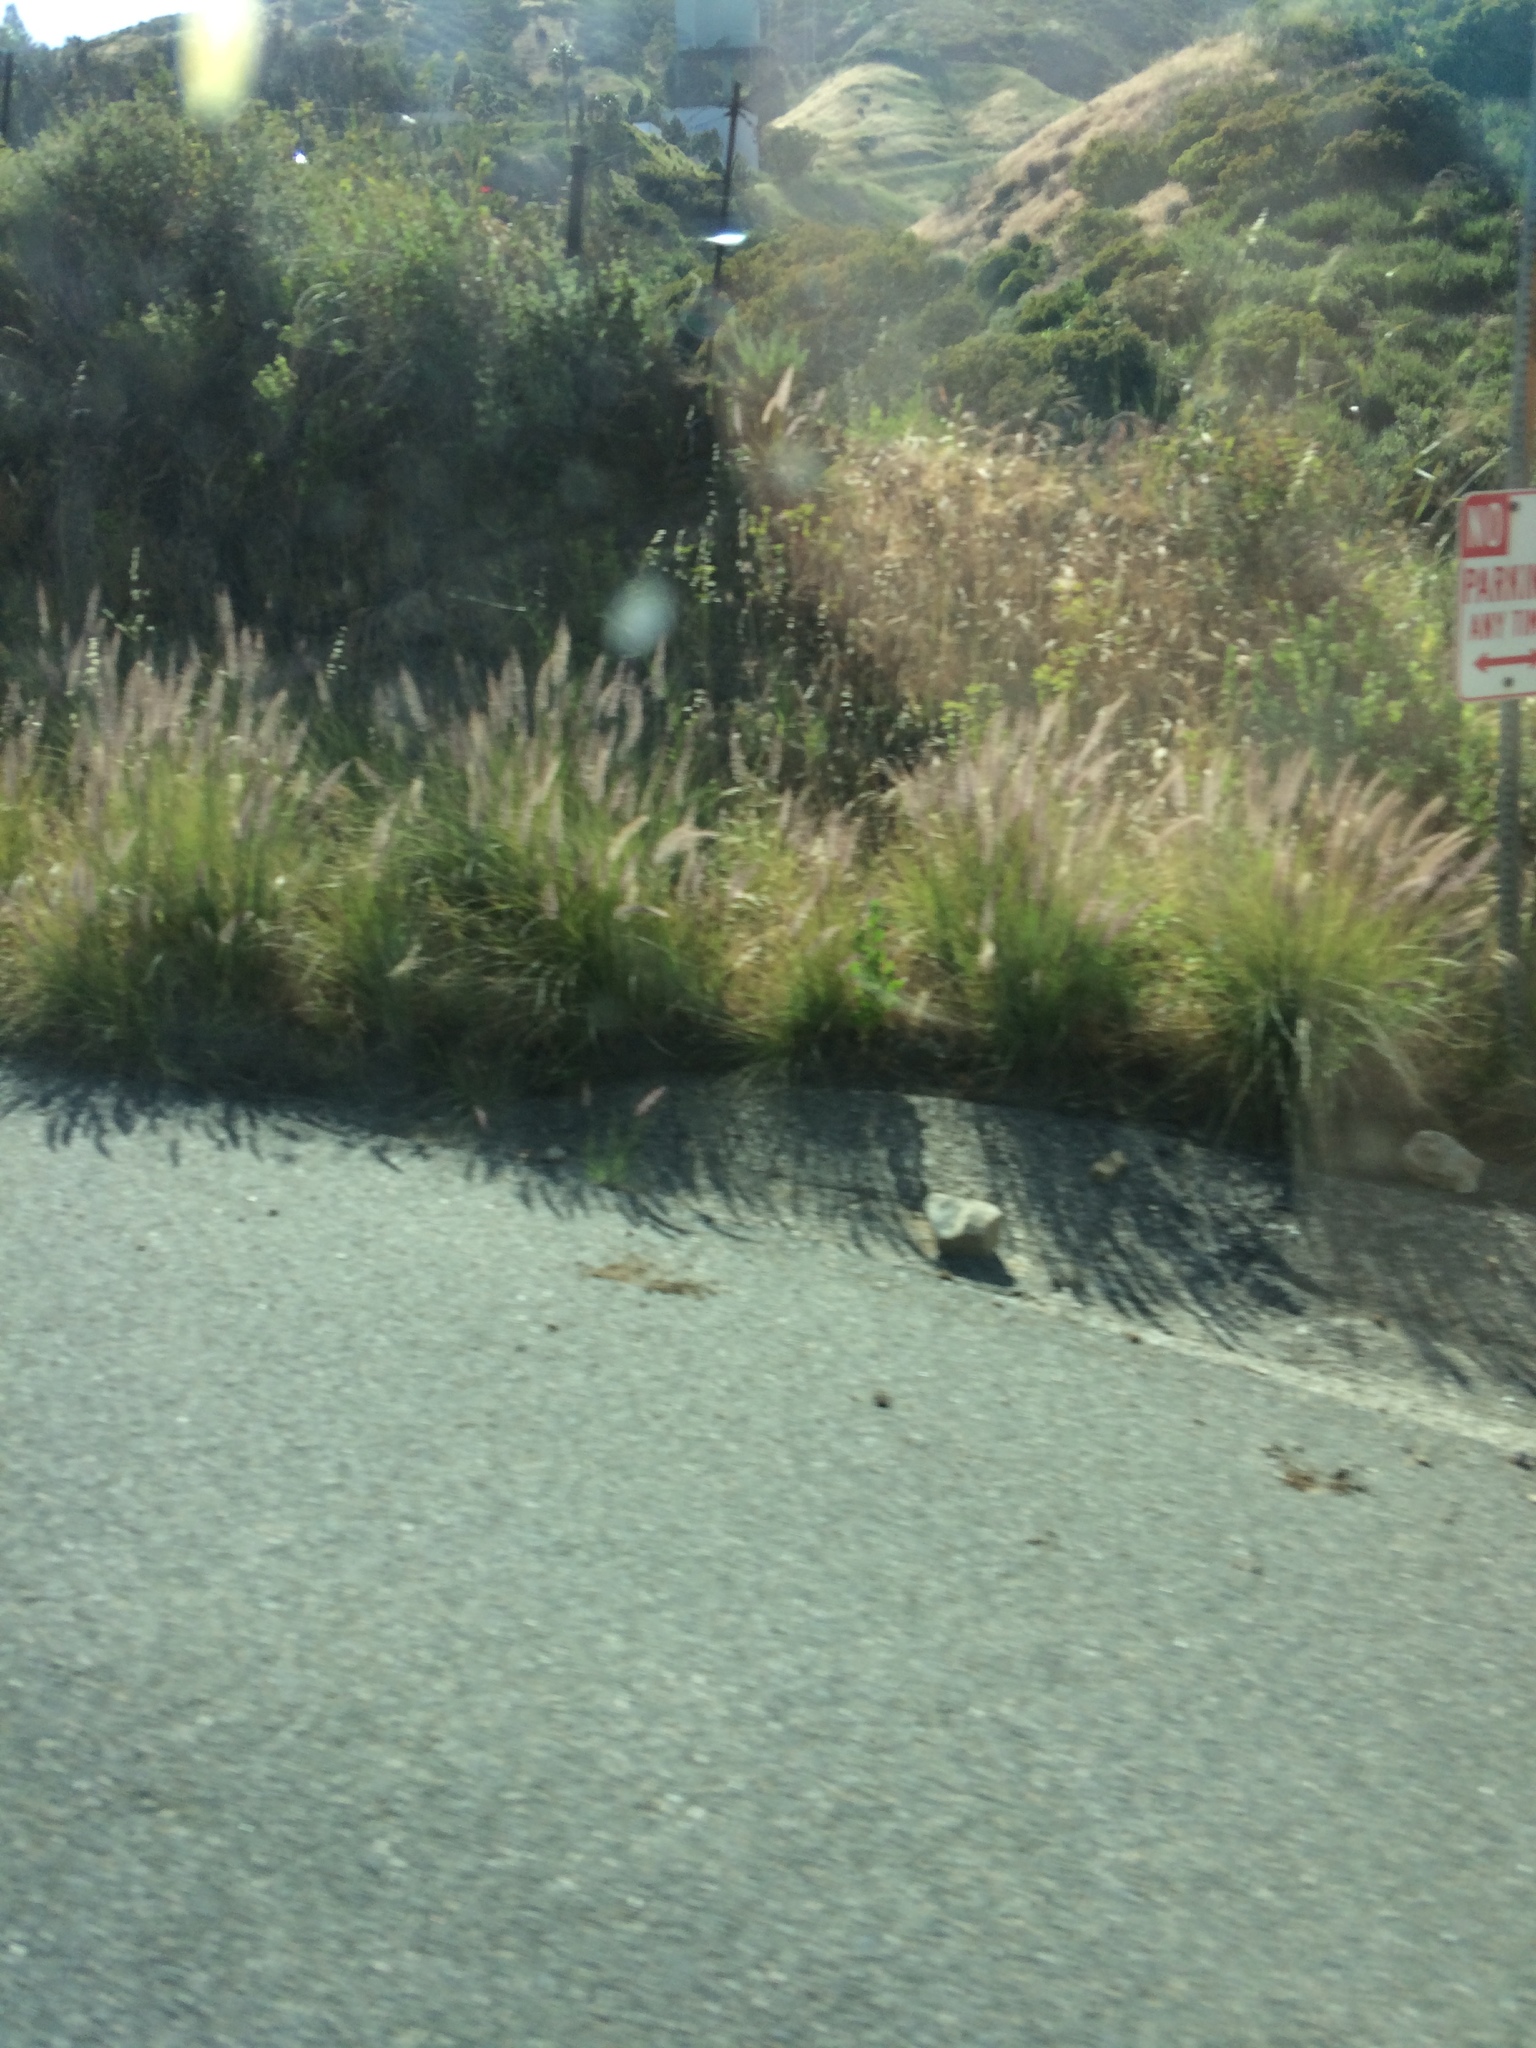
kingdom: Plantae
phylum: Tracheophyta
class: Liliopsida
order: Poales
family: Poaceae
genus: Cenchrus
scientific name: Cenchrus setaceus
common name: Crimson fountaingrass
